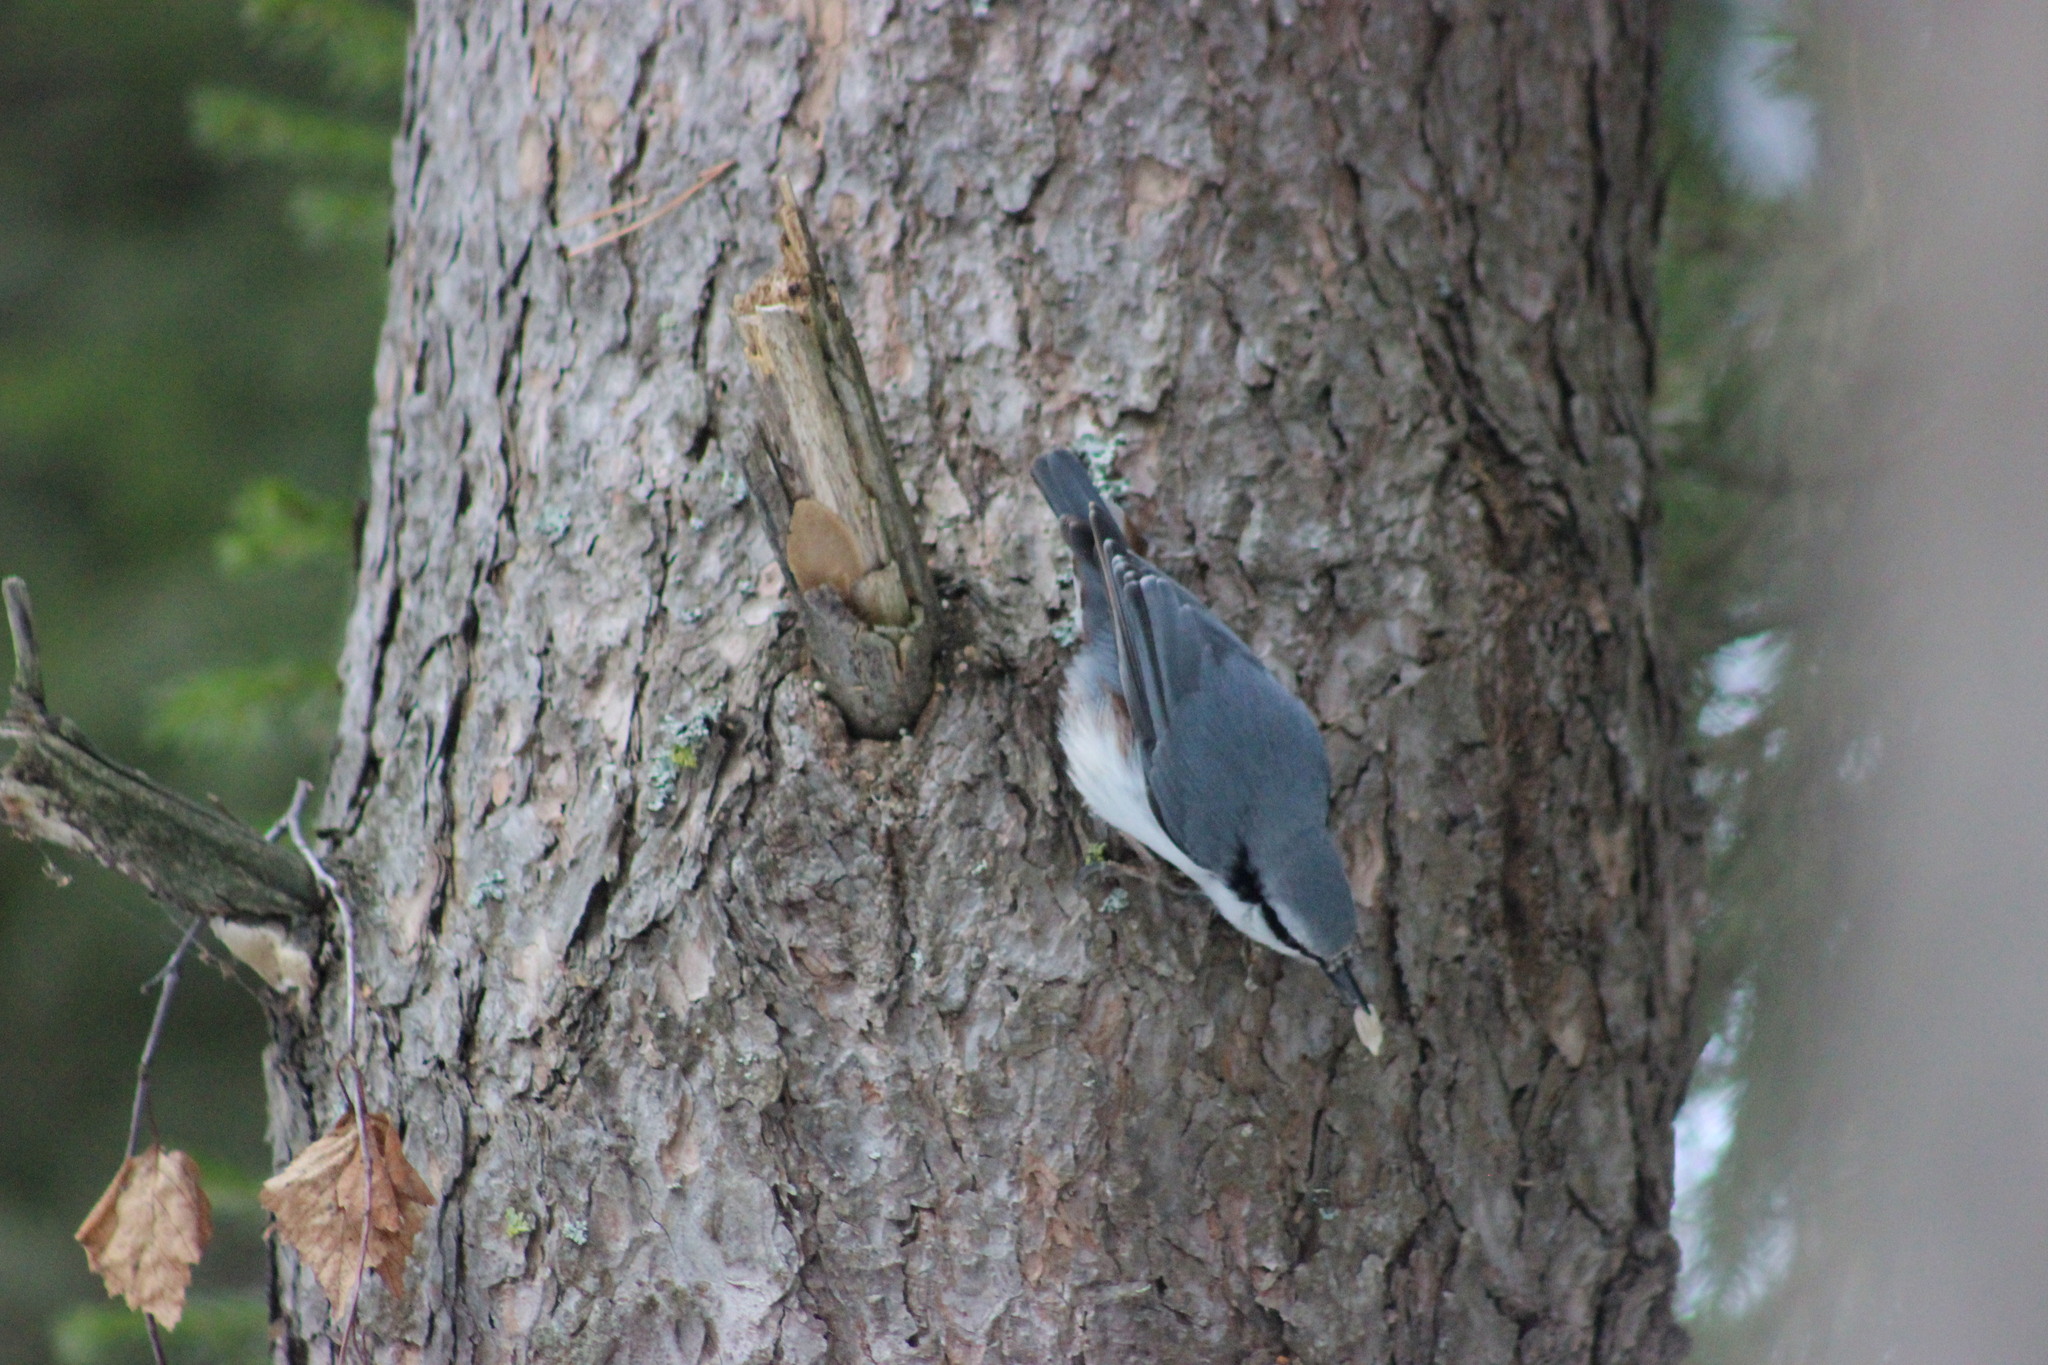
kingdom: Animalia
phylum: Chordata
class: Aves
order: Passeriformes
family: Sittidae
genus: Sitta
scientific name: Sitta europaea
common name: Eurasian nuthatch
